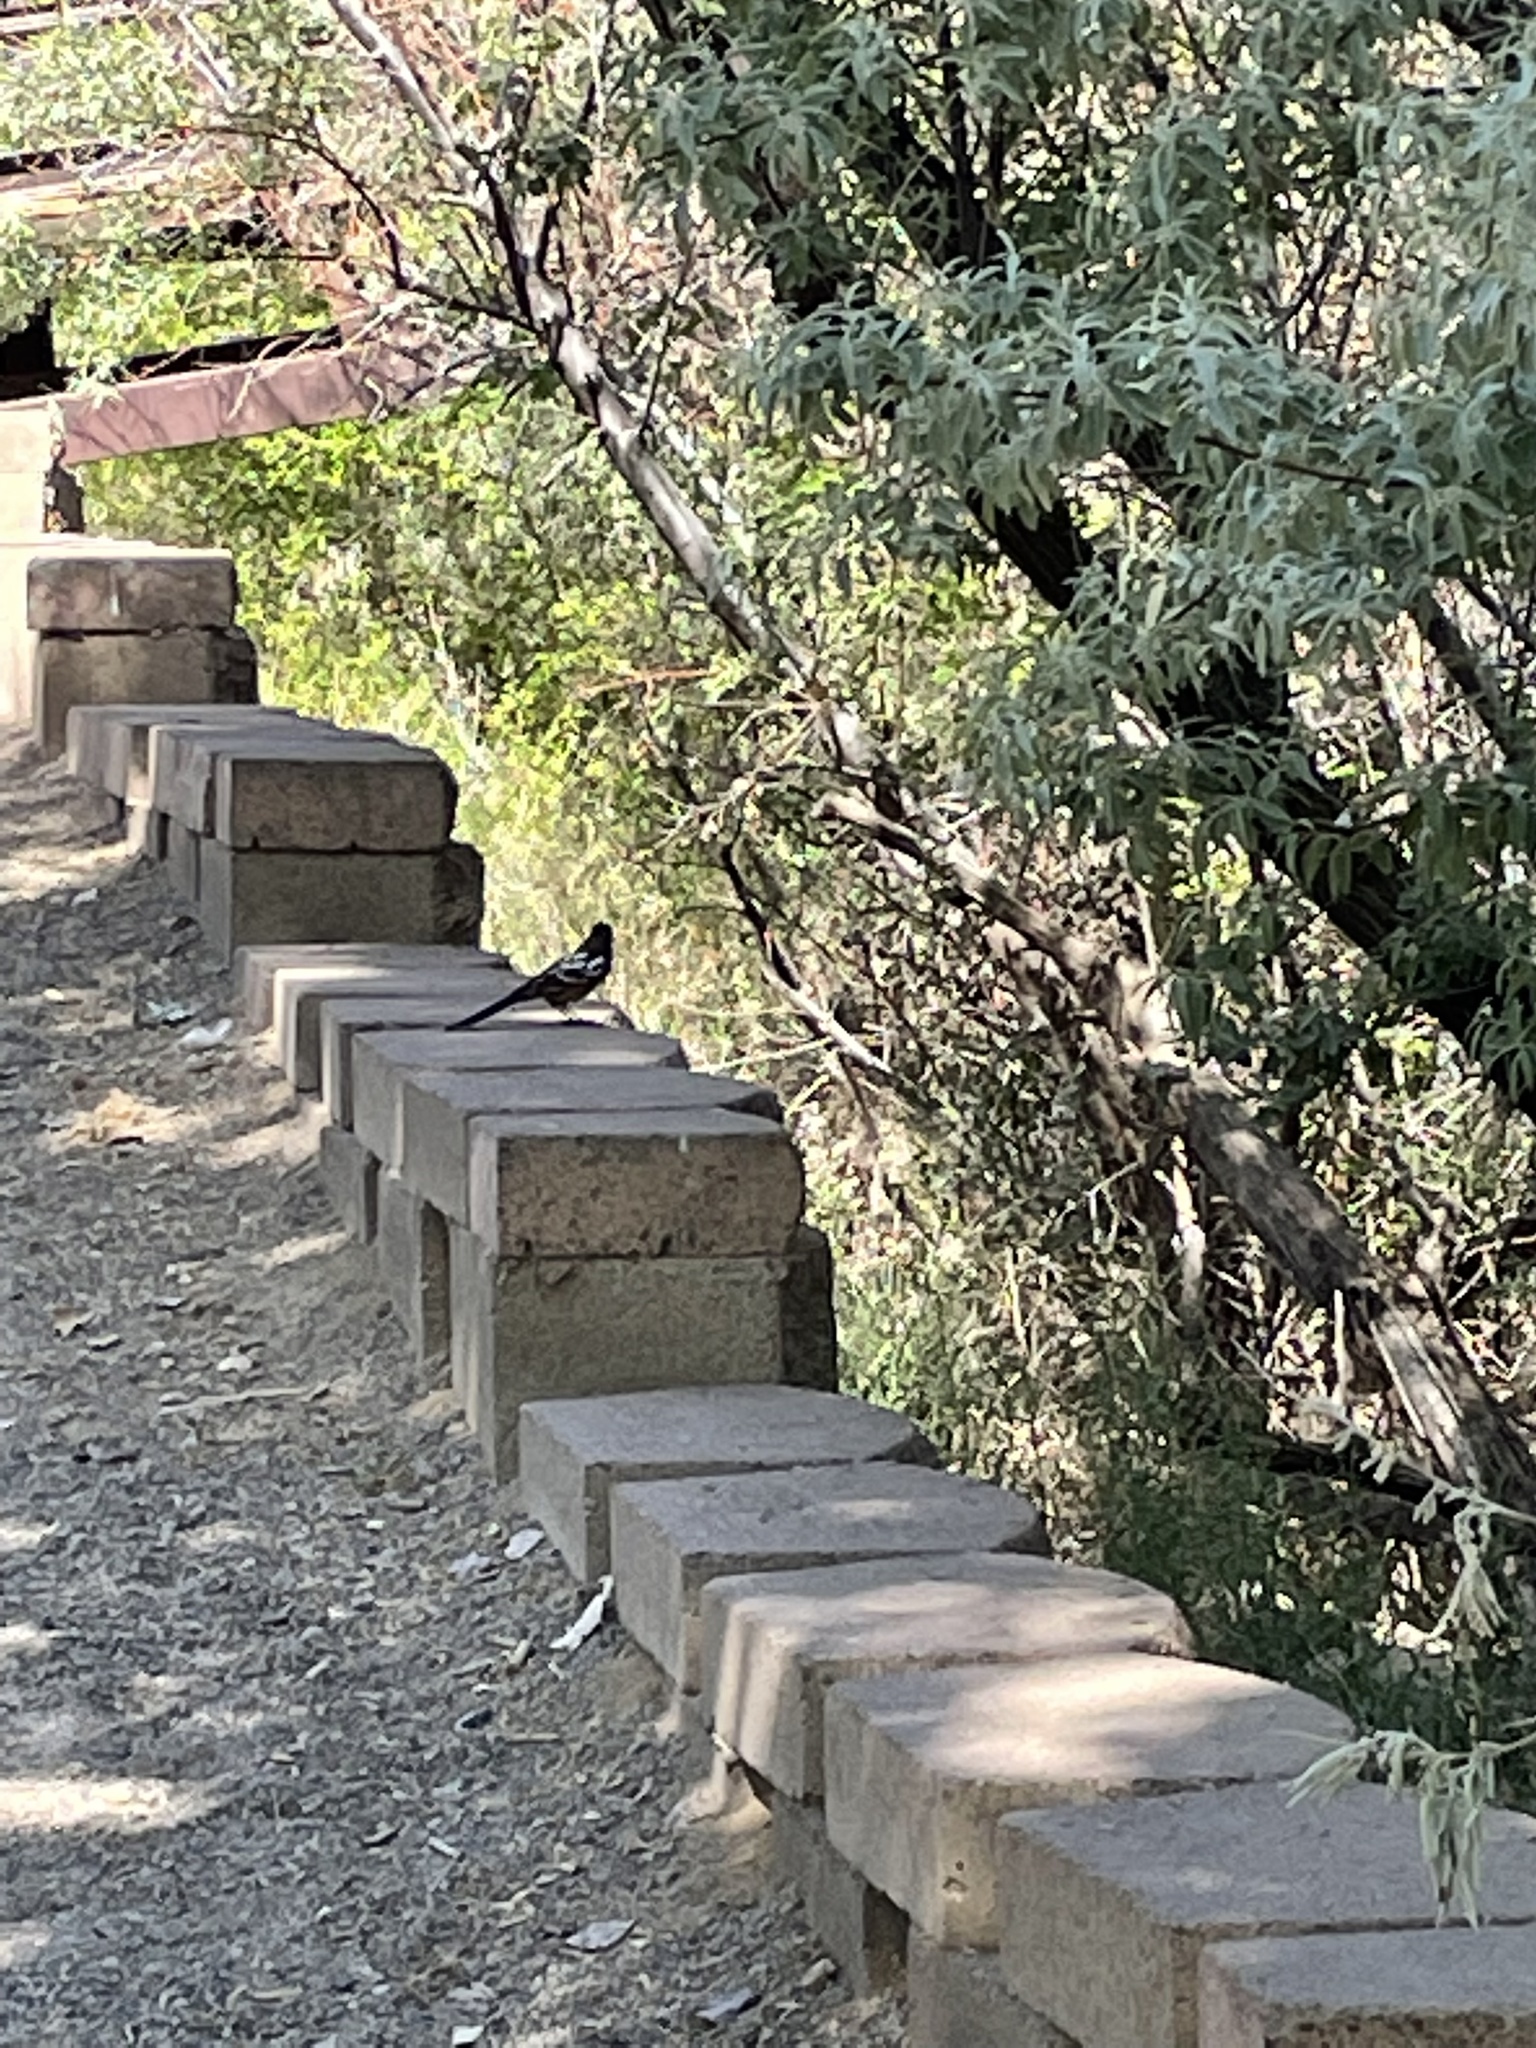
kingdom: Animalia
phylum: Chordata
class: Aves
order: Passeriformes
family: Passerellidae
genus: Pipilo
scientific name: Pipilo maculatus
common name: Spotted towhee
